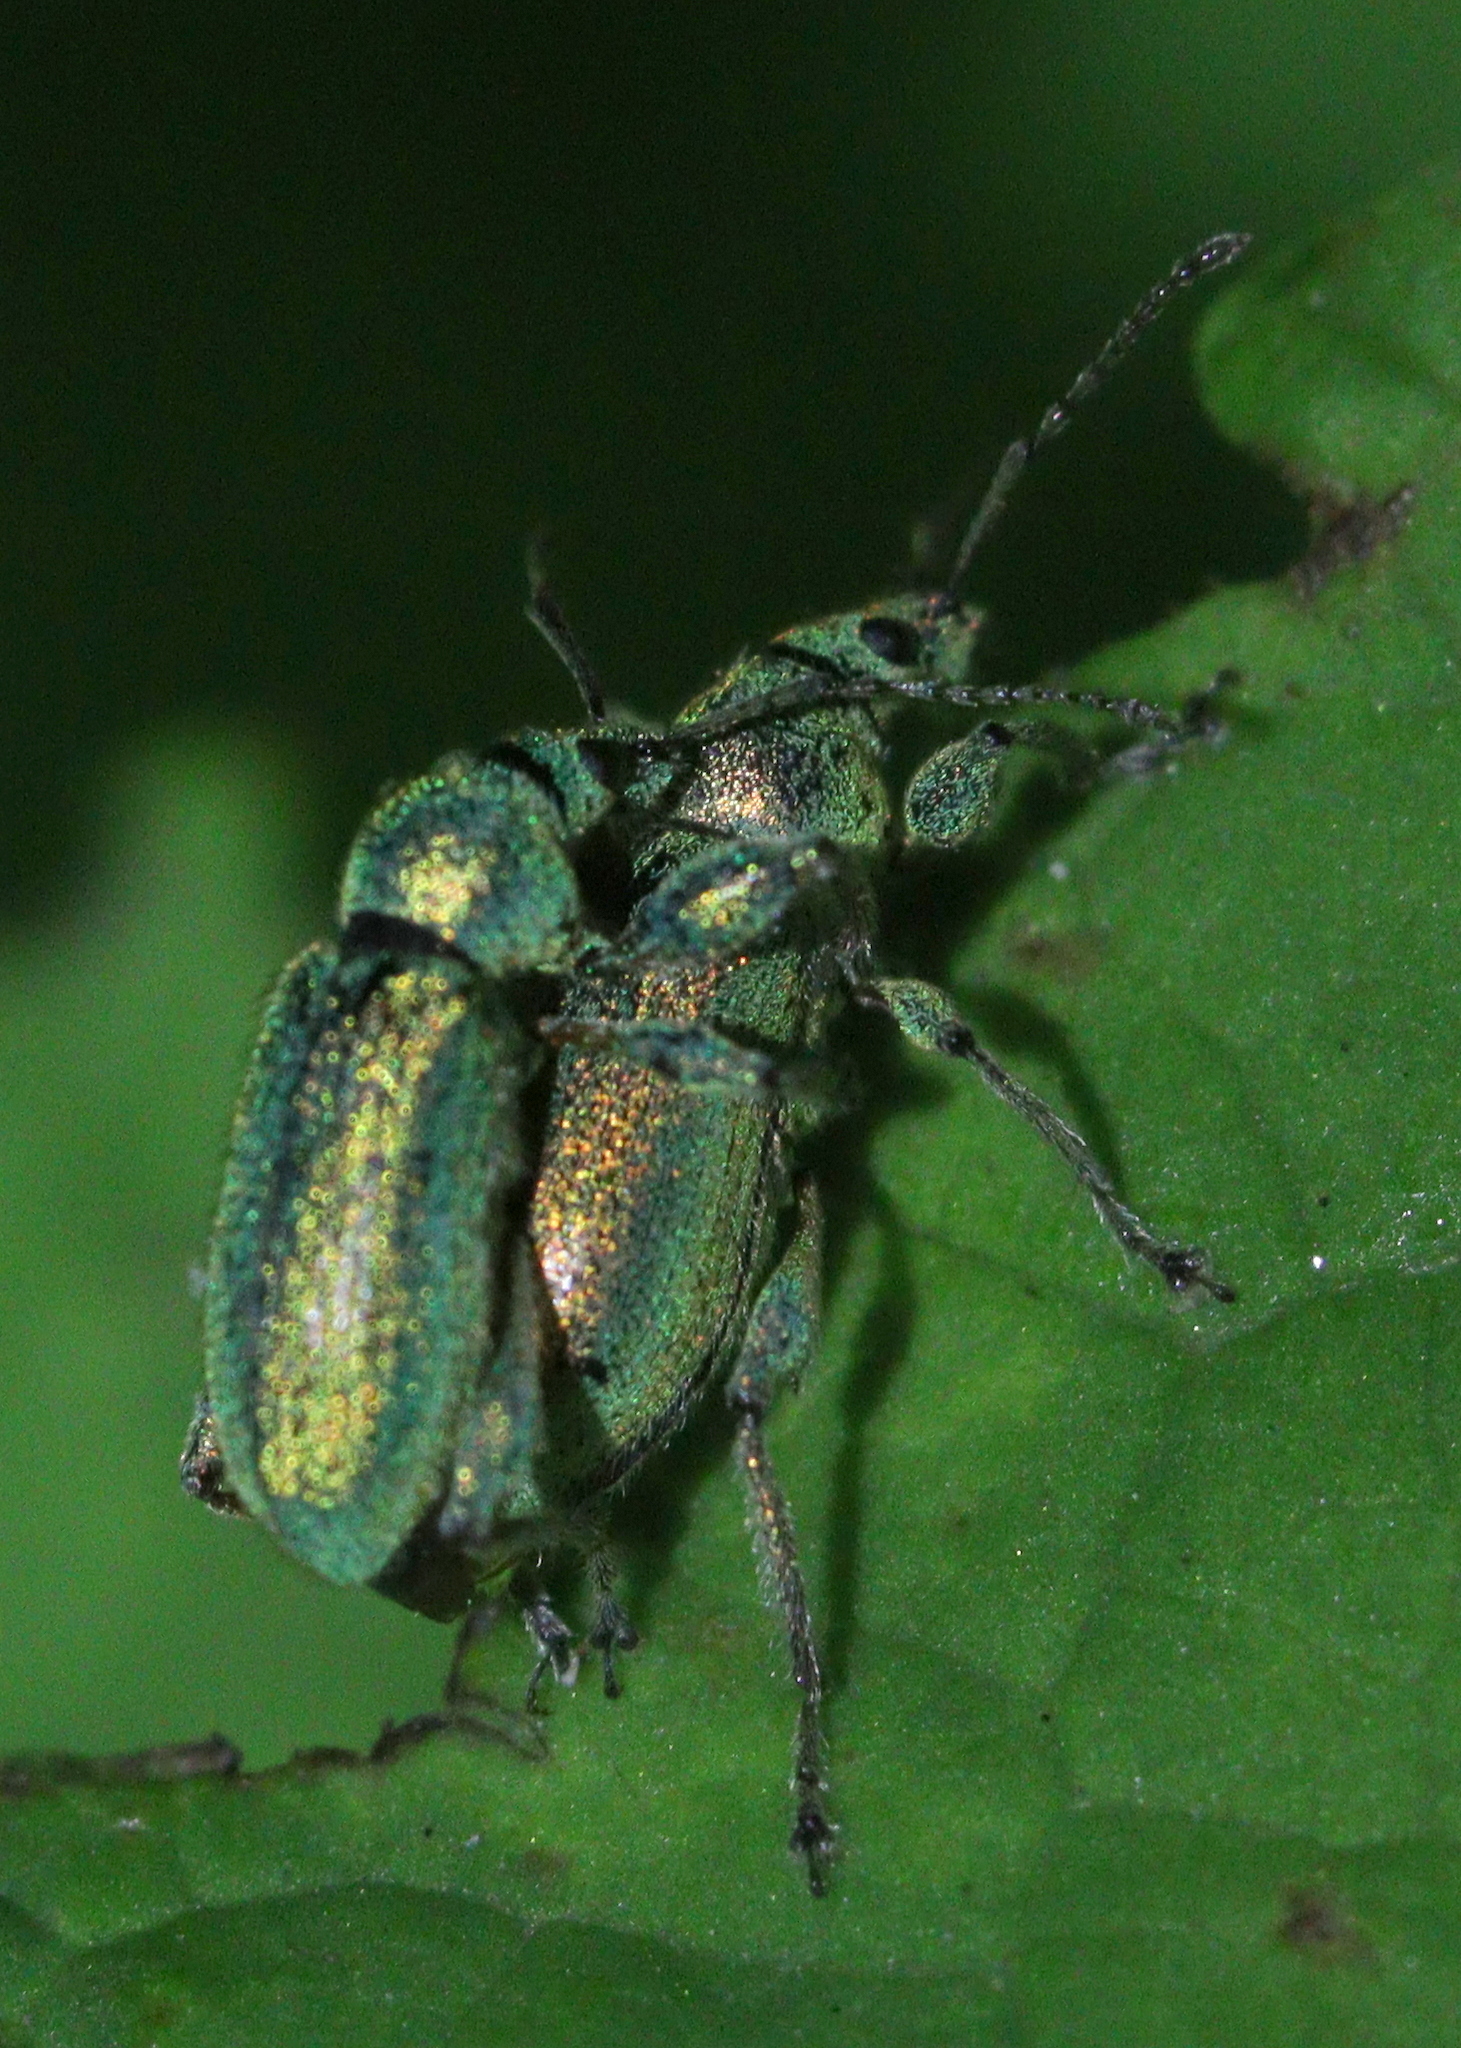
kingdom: Animalia
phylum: Arthropoda
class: Insecta
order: Coleoptera
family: Curculionidae
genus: Phyllobius
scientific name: Phyllobius arborator
